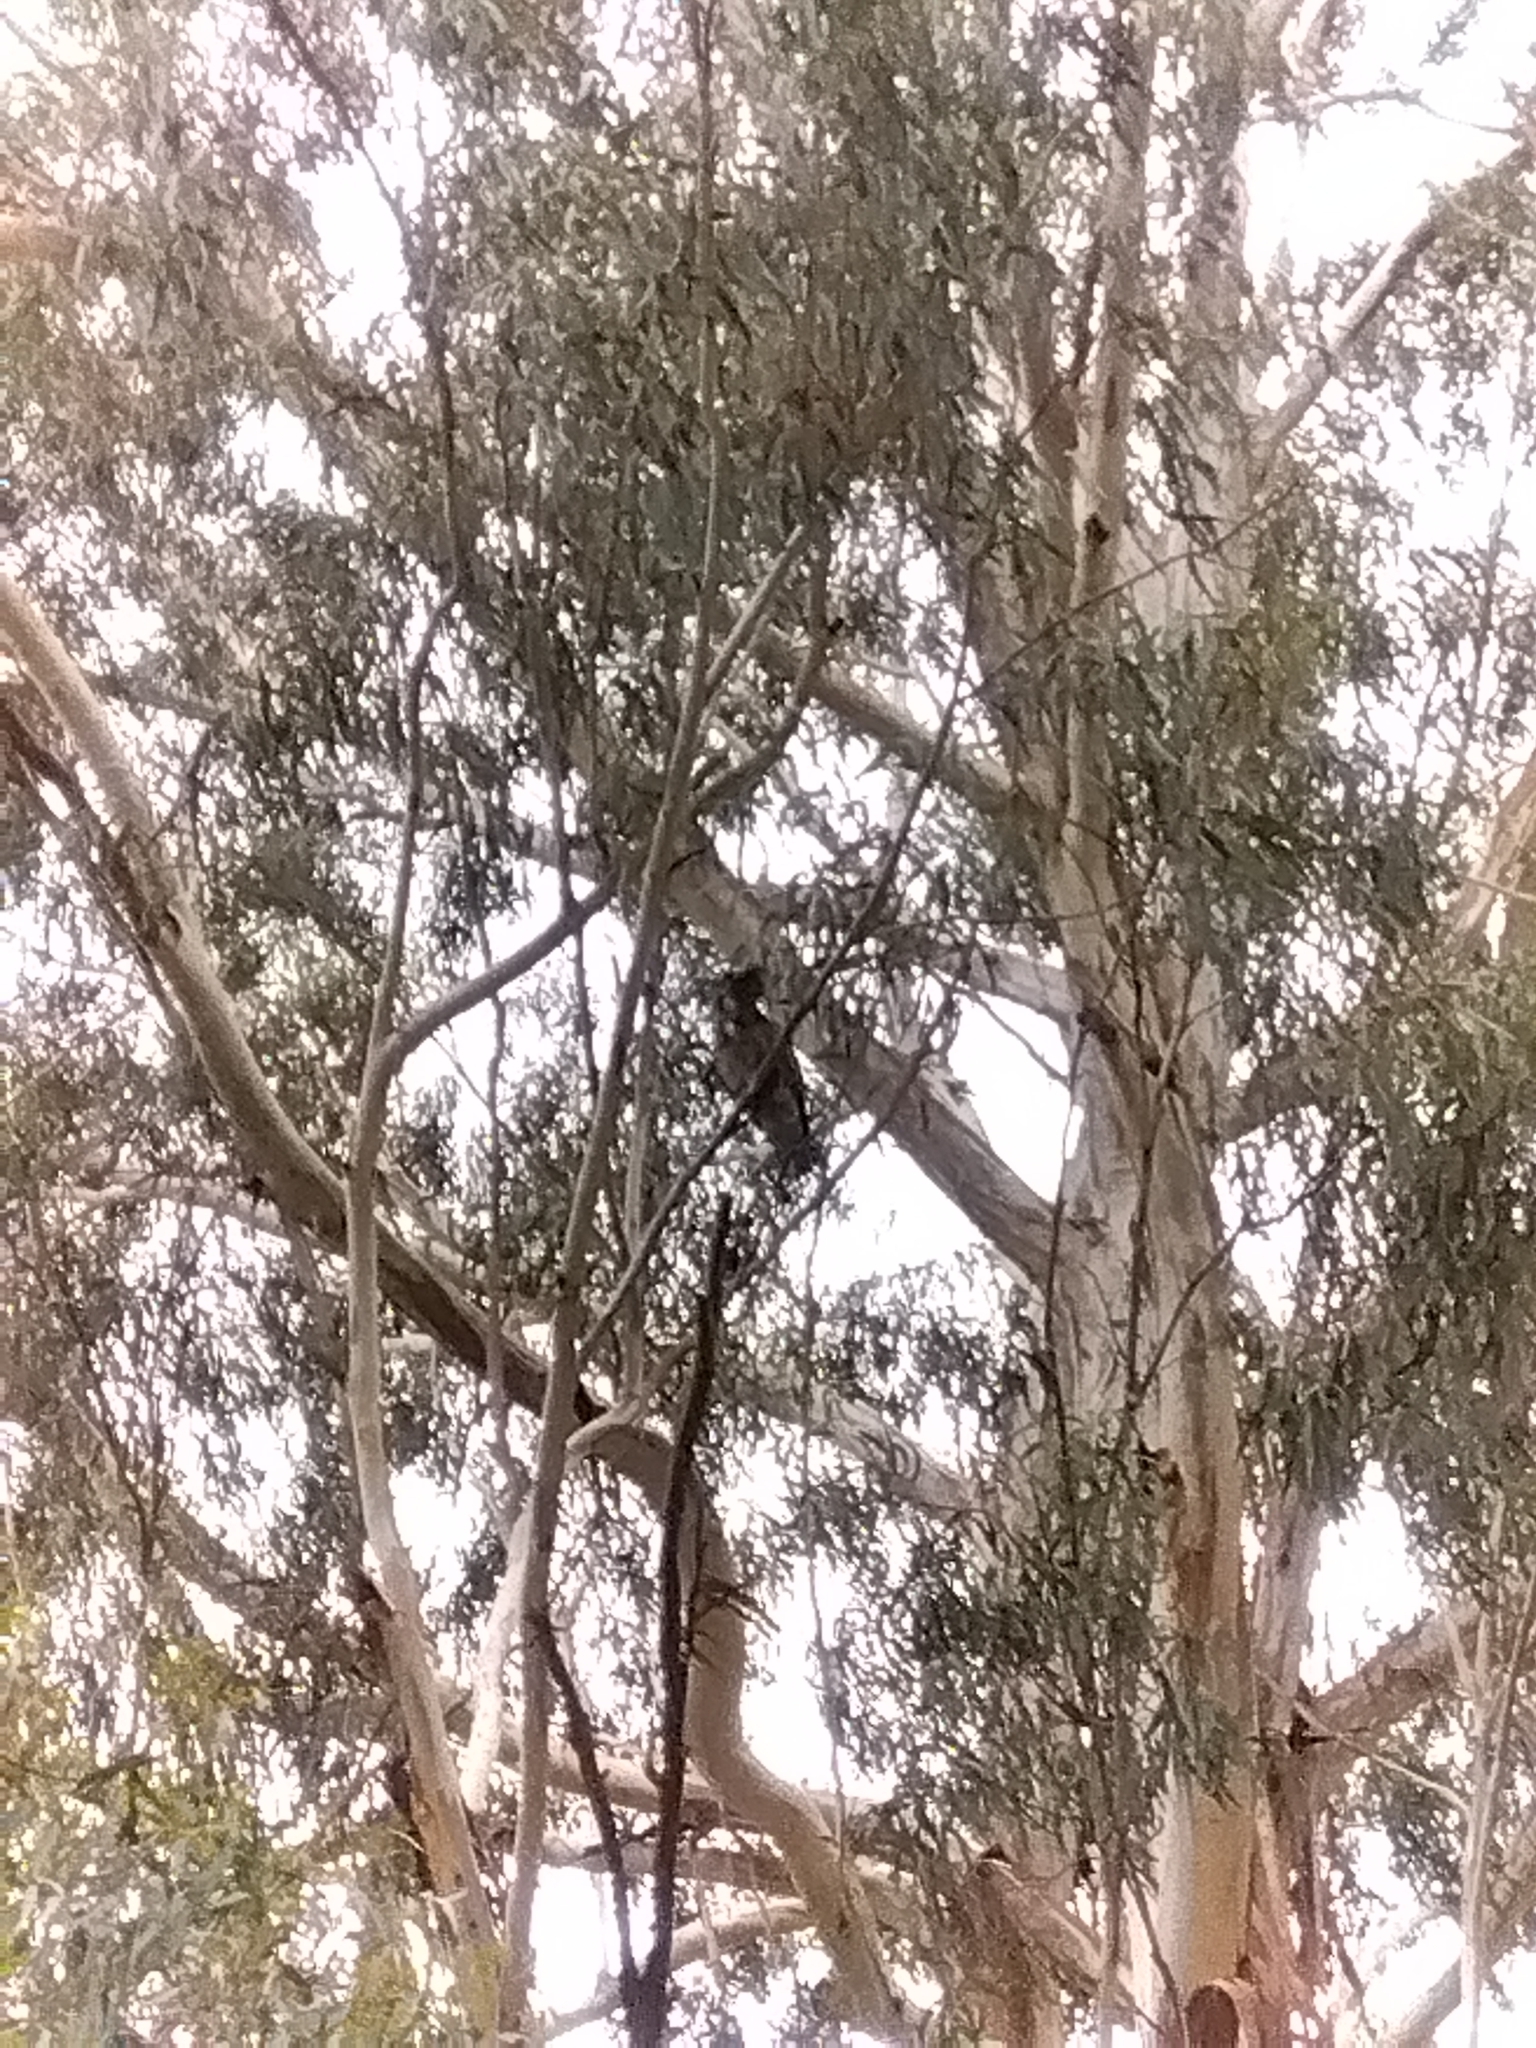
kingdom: Animalia
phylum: Chordata
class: Aves
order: Psittaciformes
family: Psittacidae
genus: Callocephalon
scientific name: Callocephalon fimbriatum
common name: Gang-gang cockatoo
